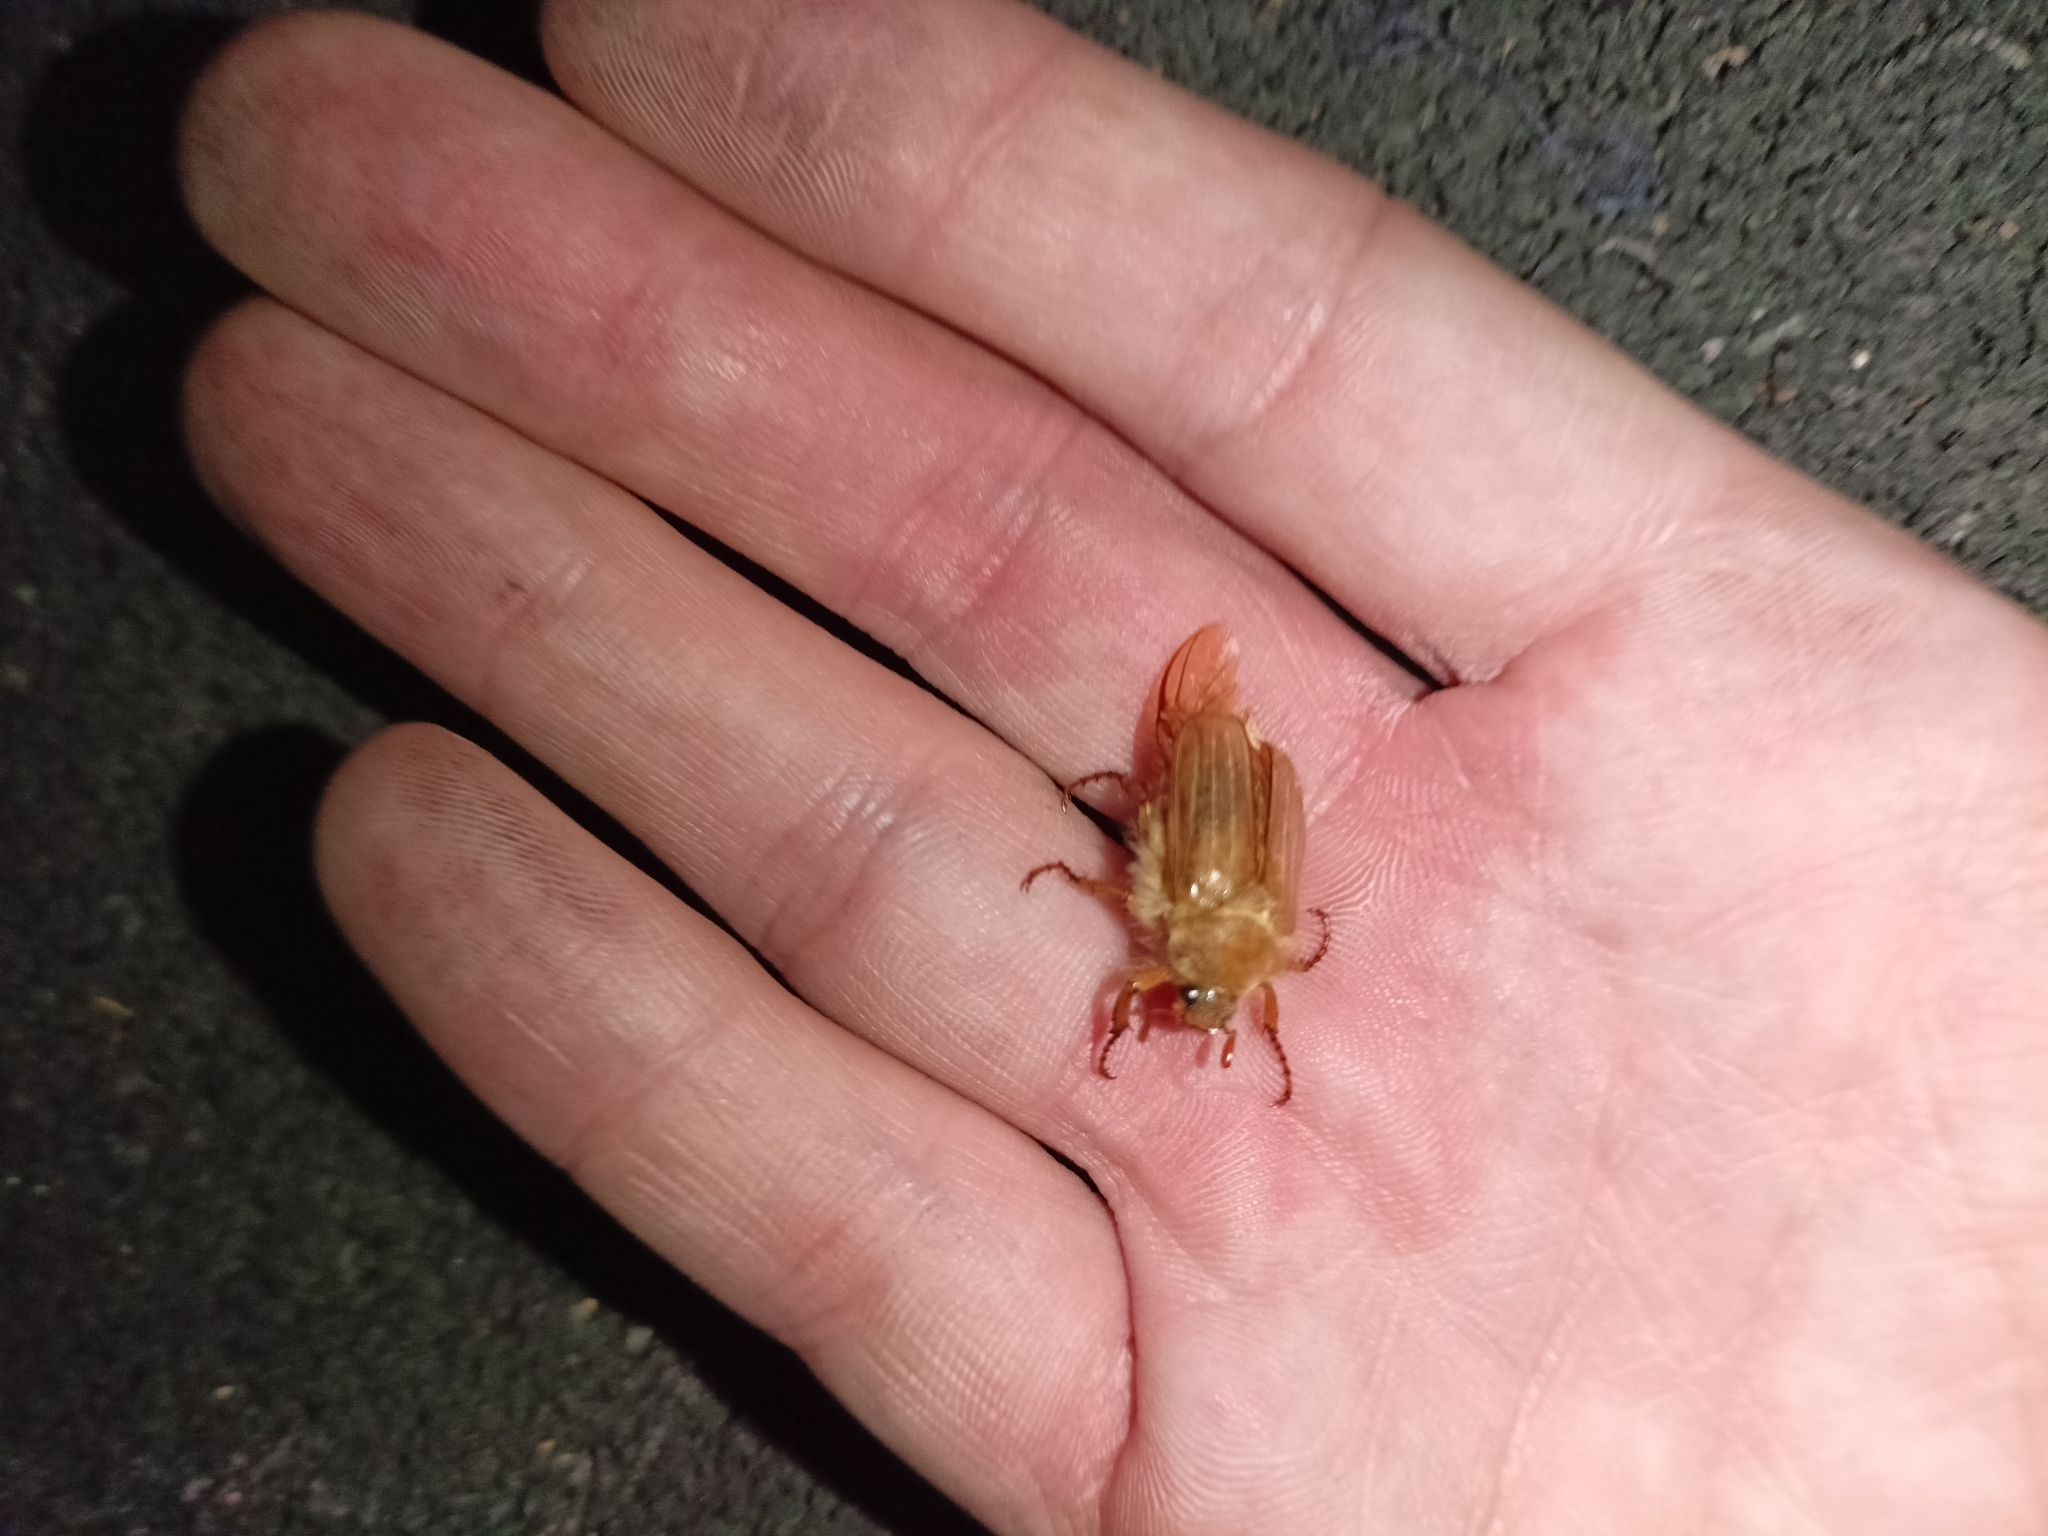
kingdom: Animalia
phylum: Arthropoda
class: Insecta
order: Coleoptera
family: Scarabaeidae
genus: Amphimallon
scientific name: Amphimallon solstitiale
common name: Summer chafer
